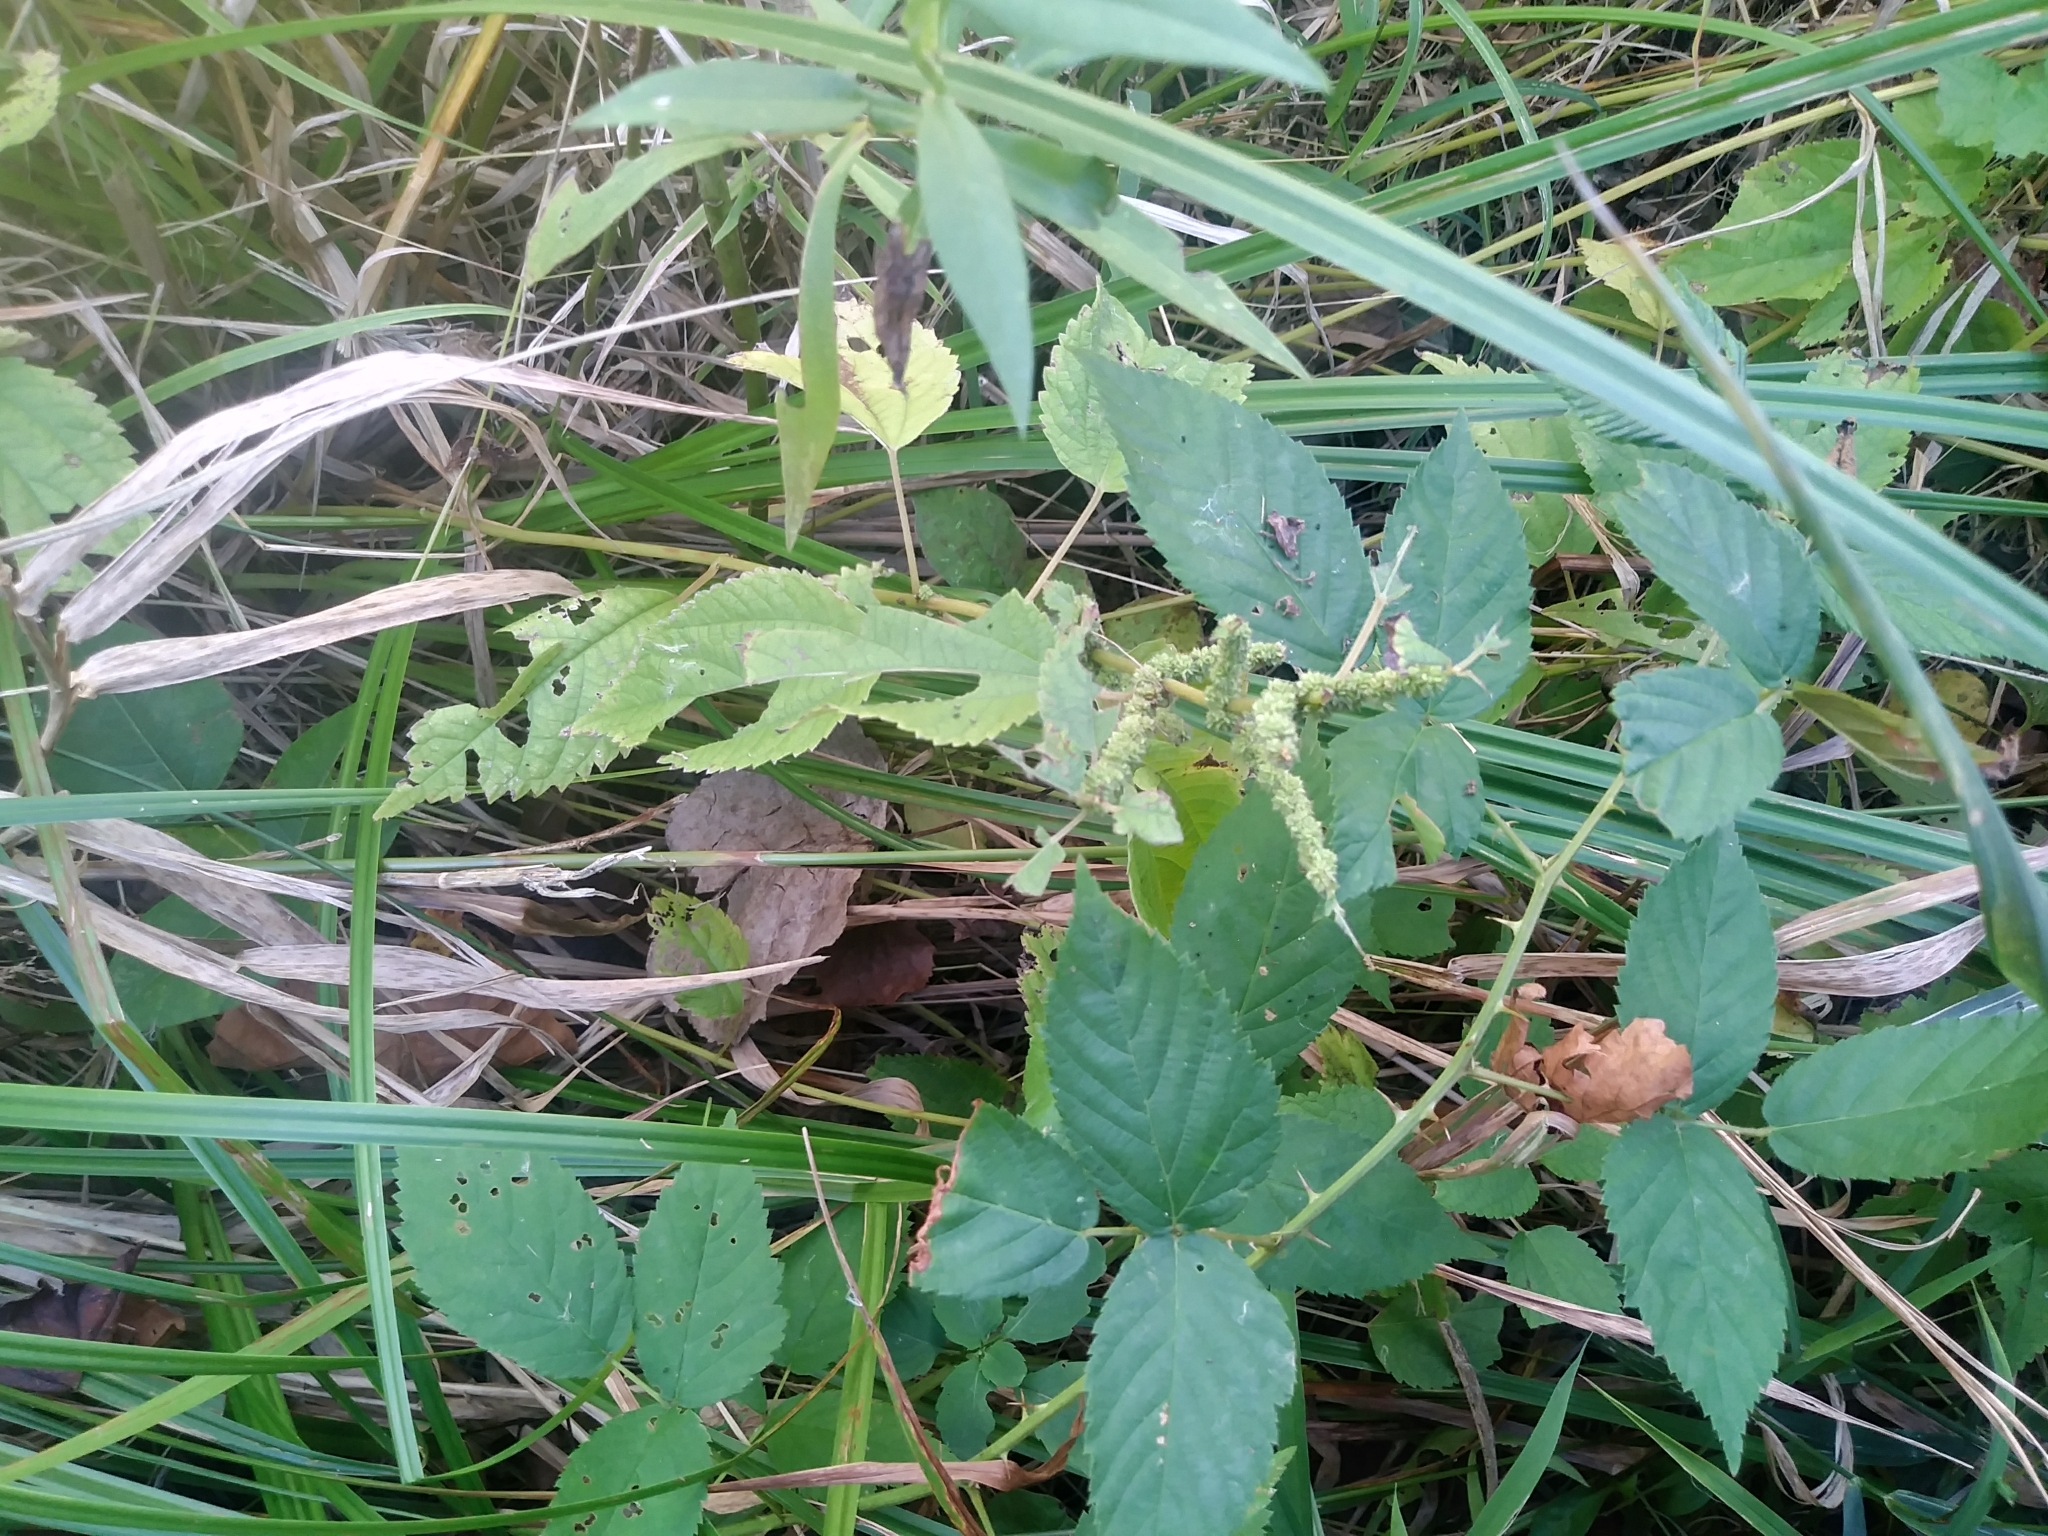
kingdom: Plantae
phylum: Tracheophyta
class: Magnoliopsida
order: Rosales
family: Urticaceae
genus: Boehmeria
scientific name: Boehmeria cylindrica
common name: Bog-hemp
